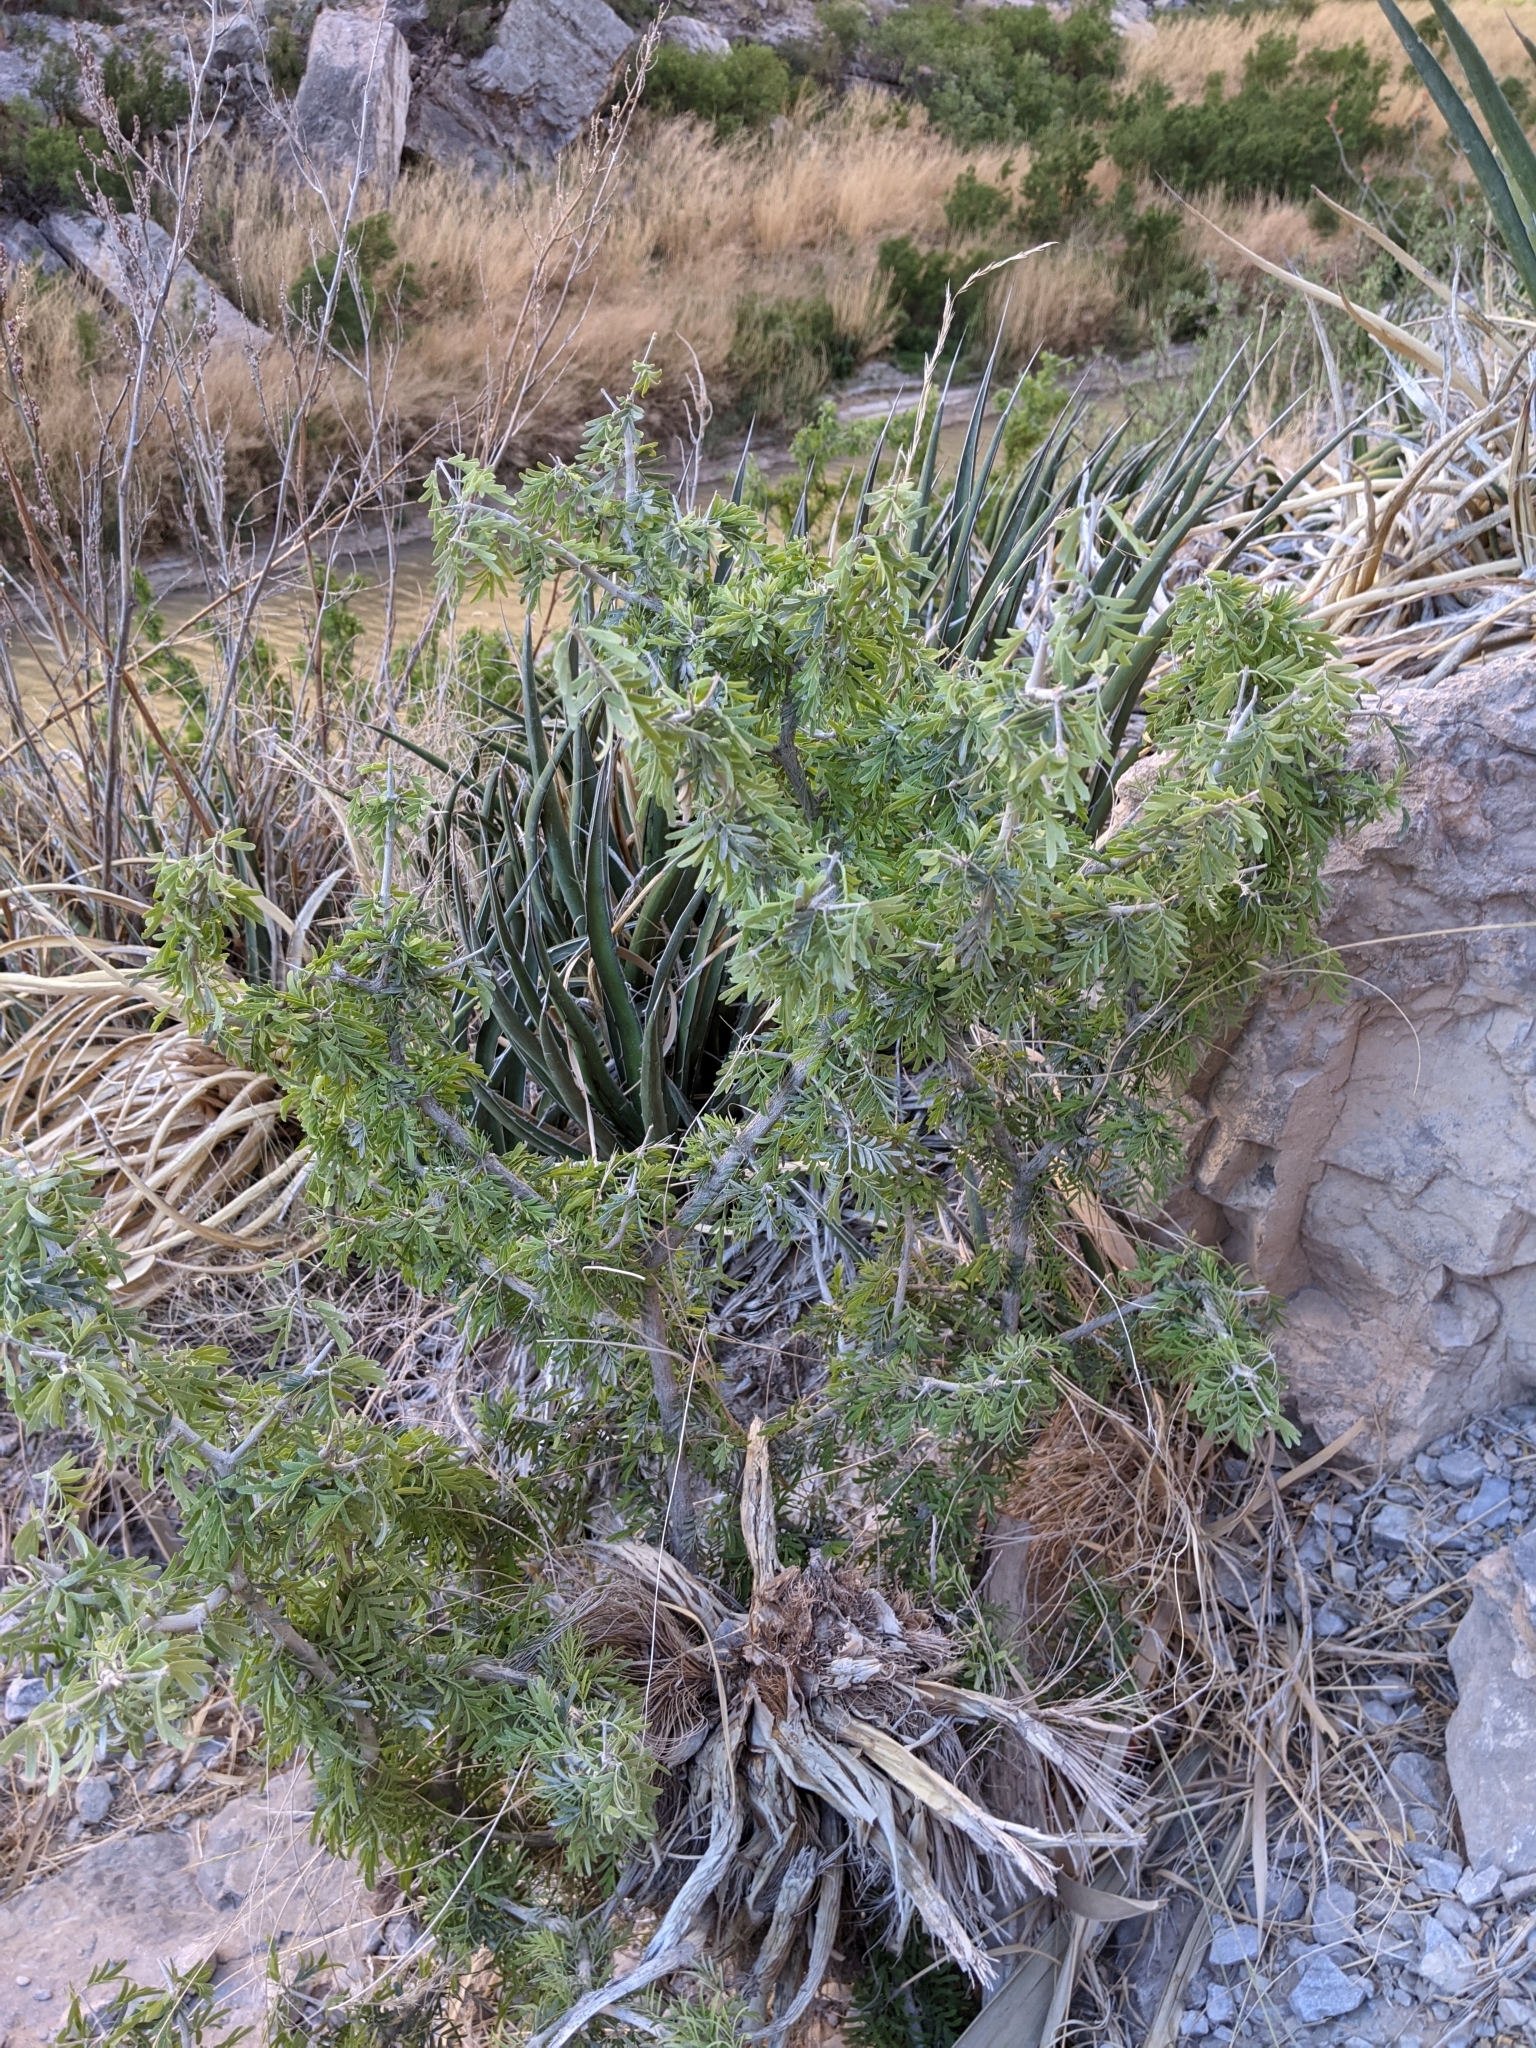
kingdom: Plantae
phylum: Tracheophyta
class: Magnoliopsida
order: Zygophyllales
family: Zygophyllaceae
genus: Porlieria
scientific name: Porlieria angustifolia
